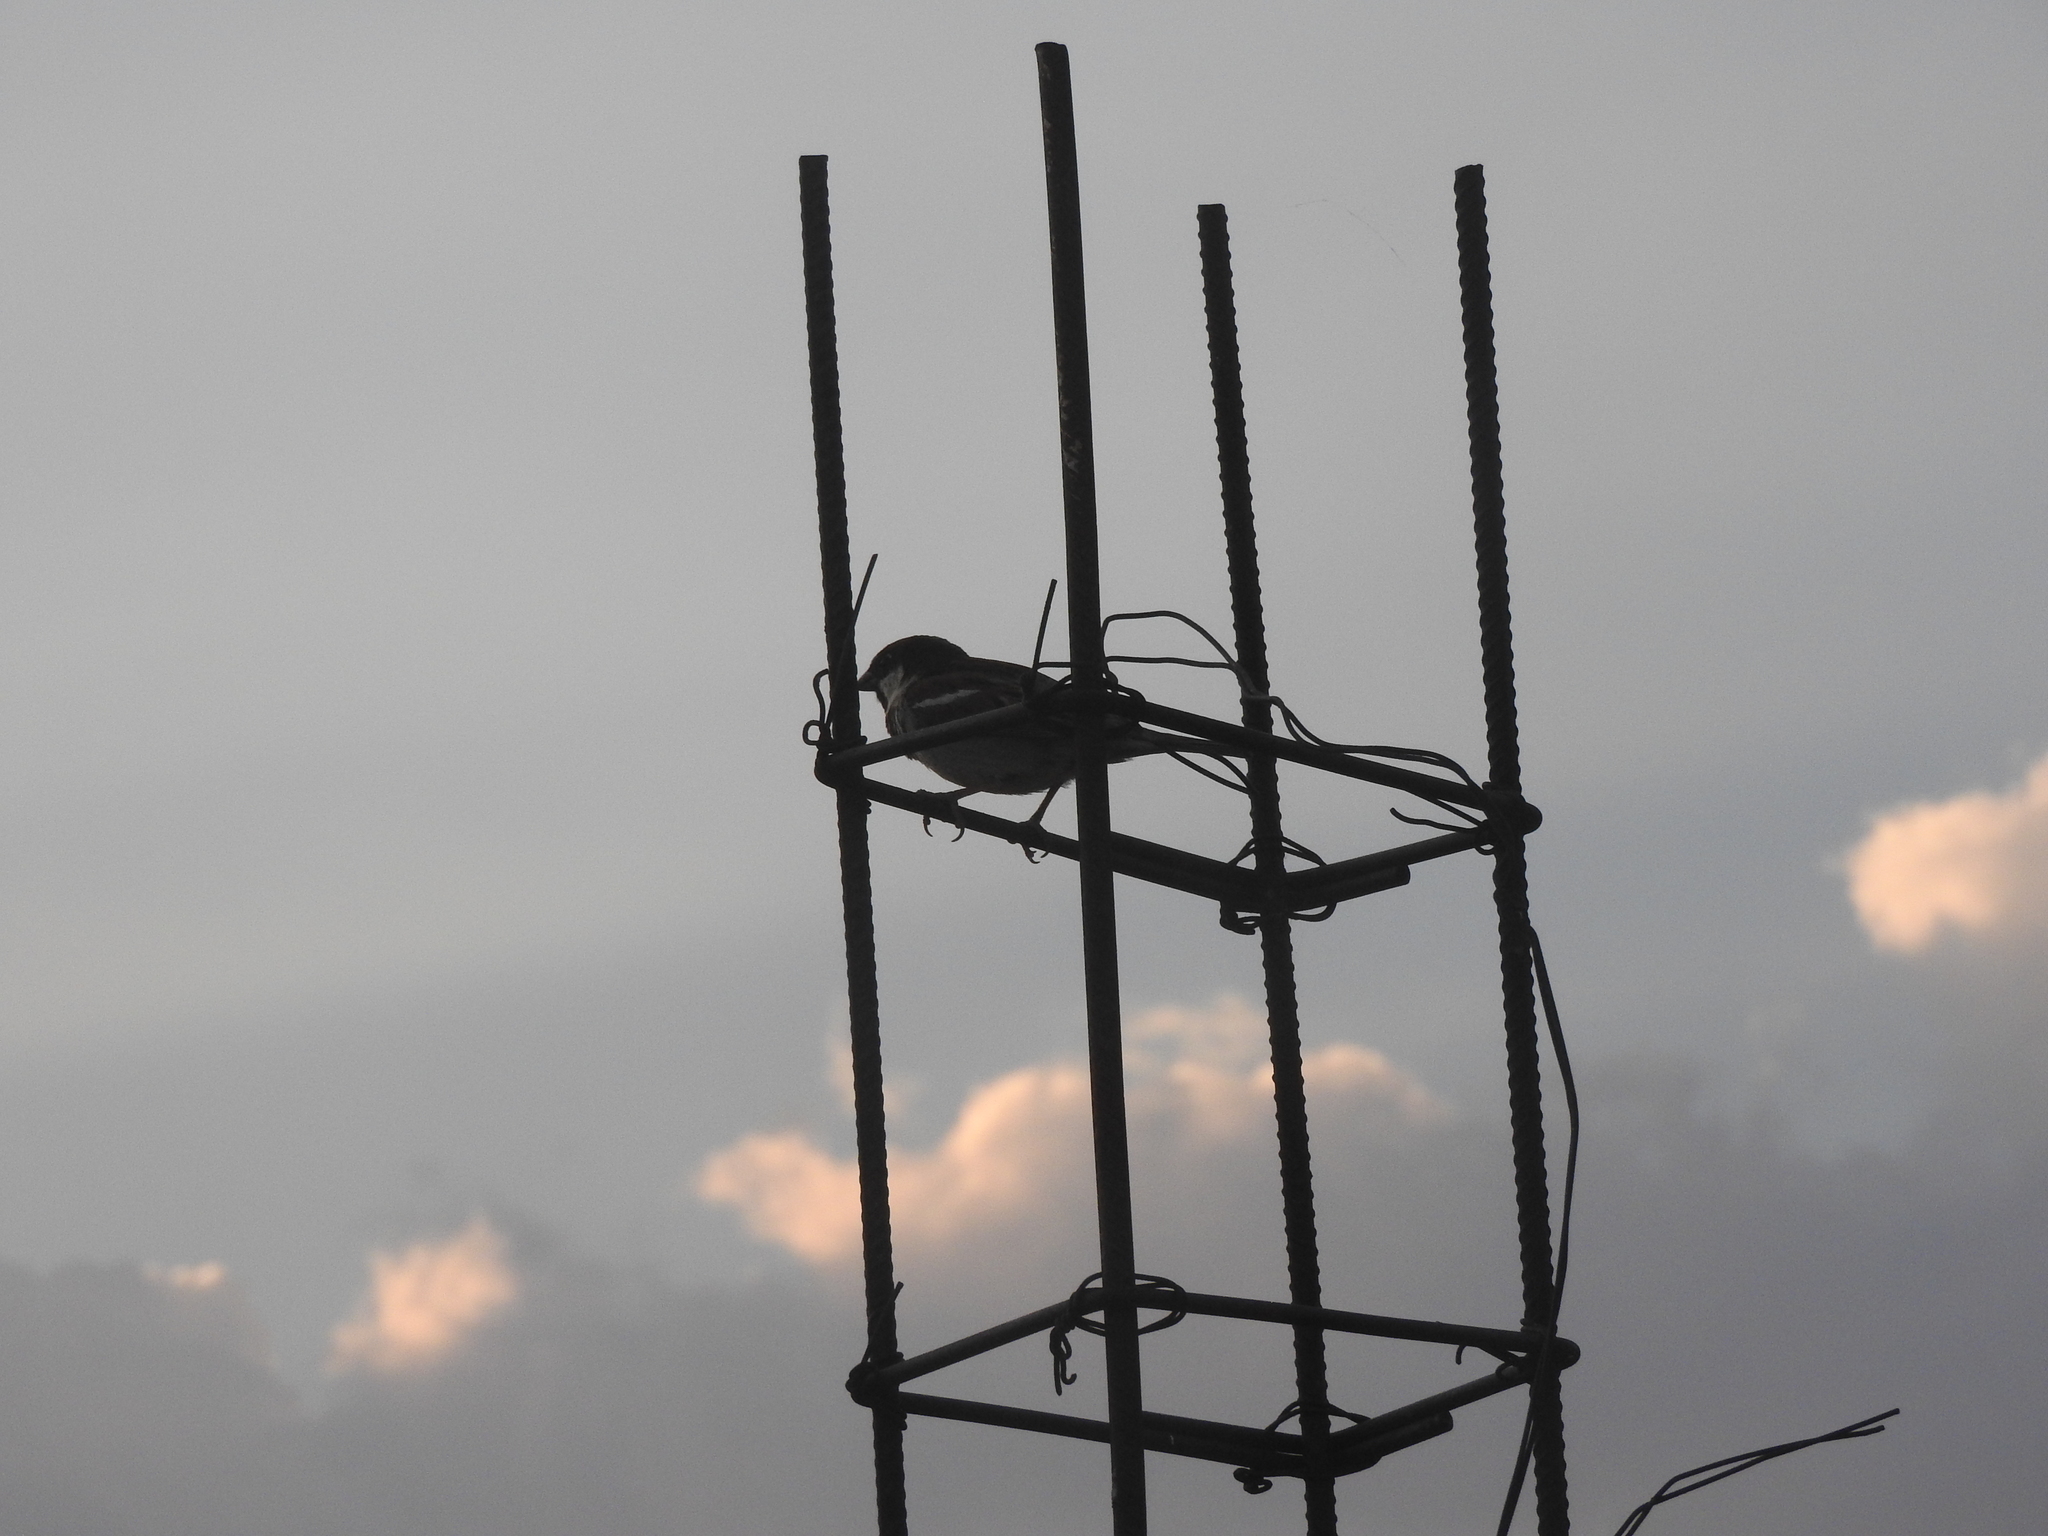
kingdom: Animalia
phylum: Chordata
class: Aves
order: Passeriformes
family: Passeridae
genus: Passer
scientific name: Passer domesticus
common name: House sparrow
